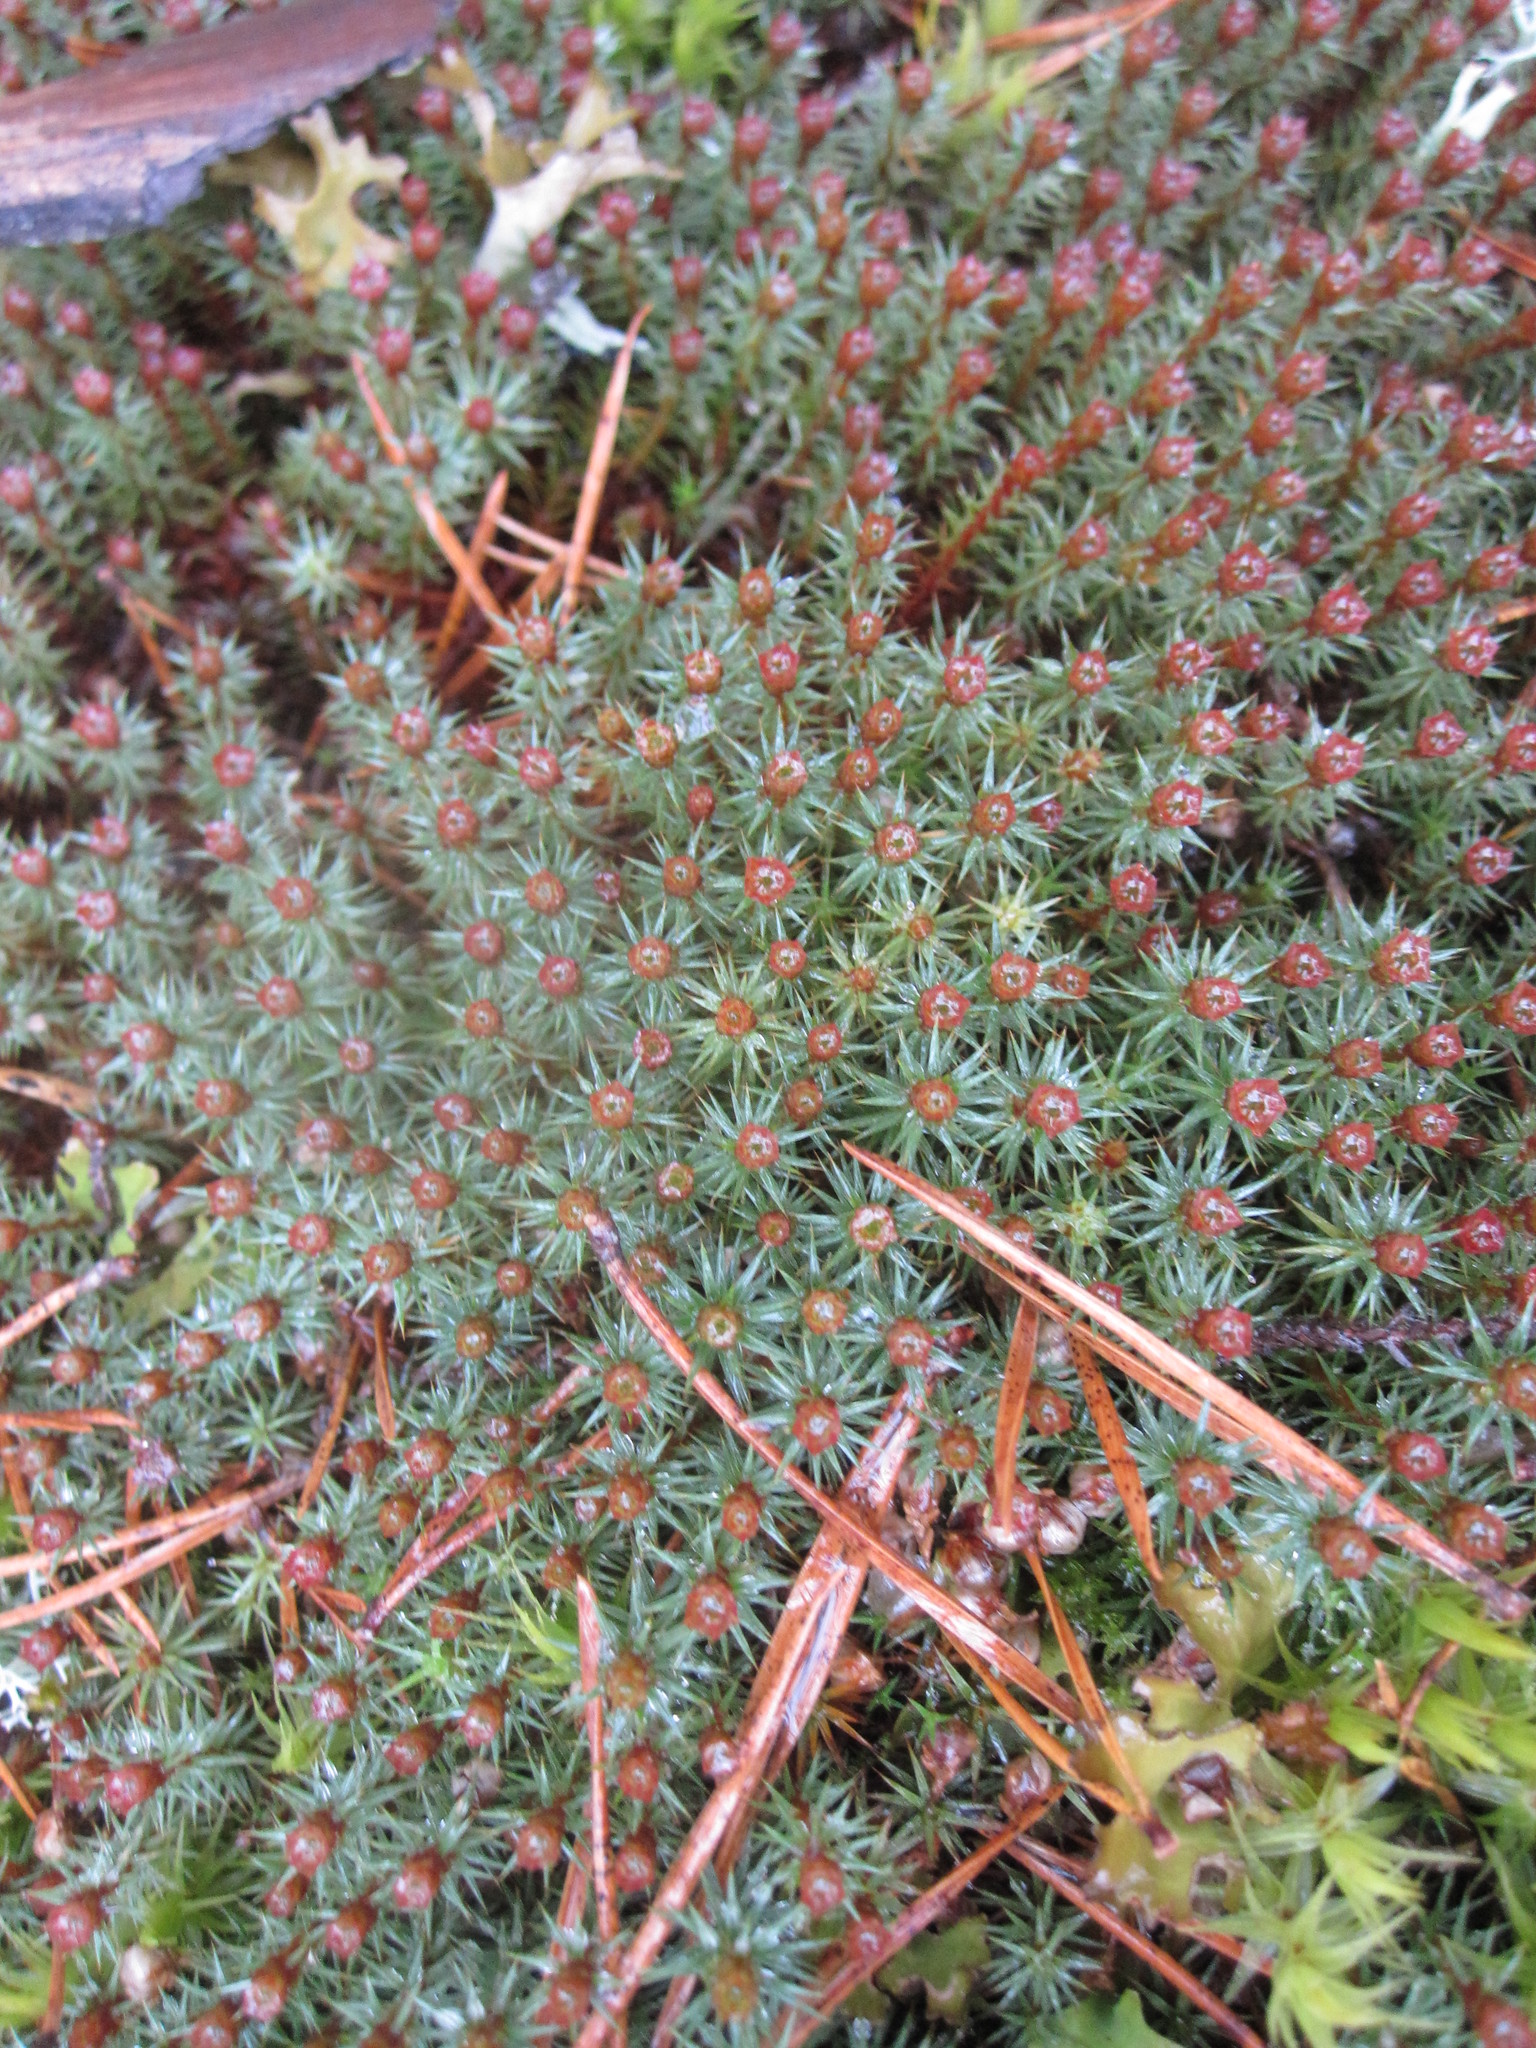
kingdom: Plantae
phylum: Bryophyta
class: Polytrichopsida
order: Polytrichales
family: Polytrichaceae
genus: Polytrichum
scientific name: Polytrichum juniperinum
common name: Juniper haircap moss
